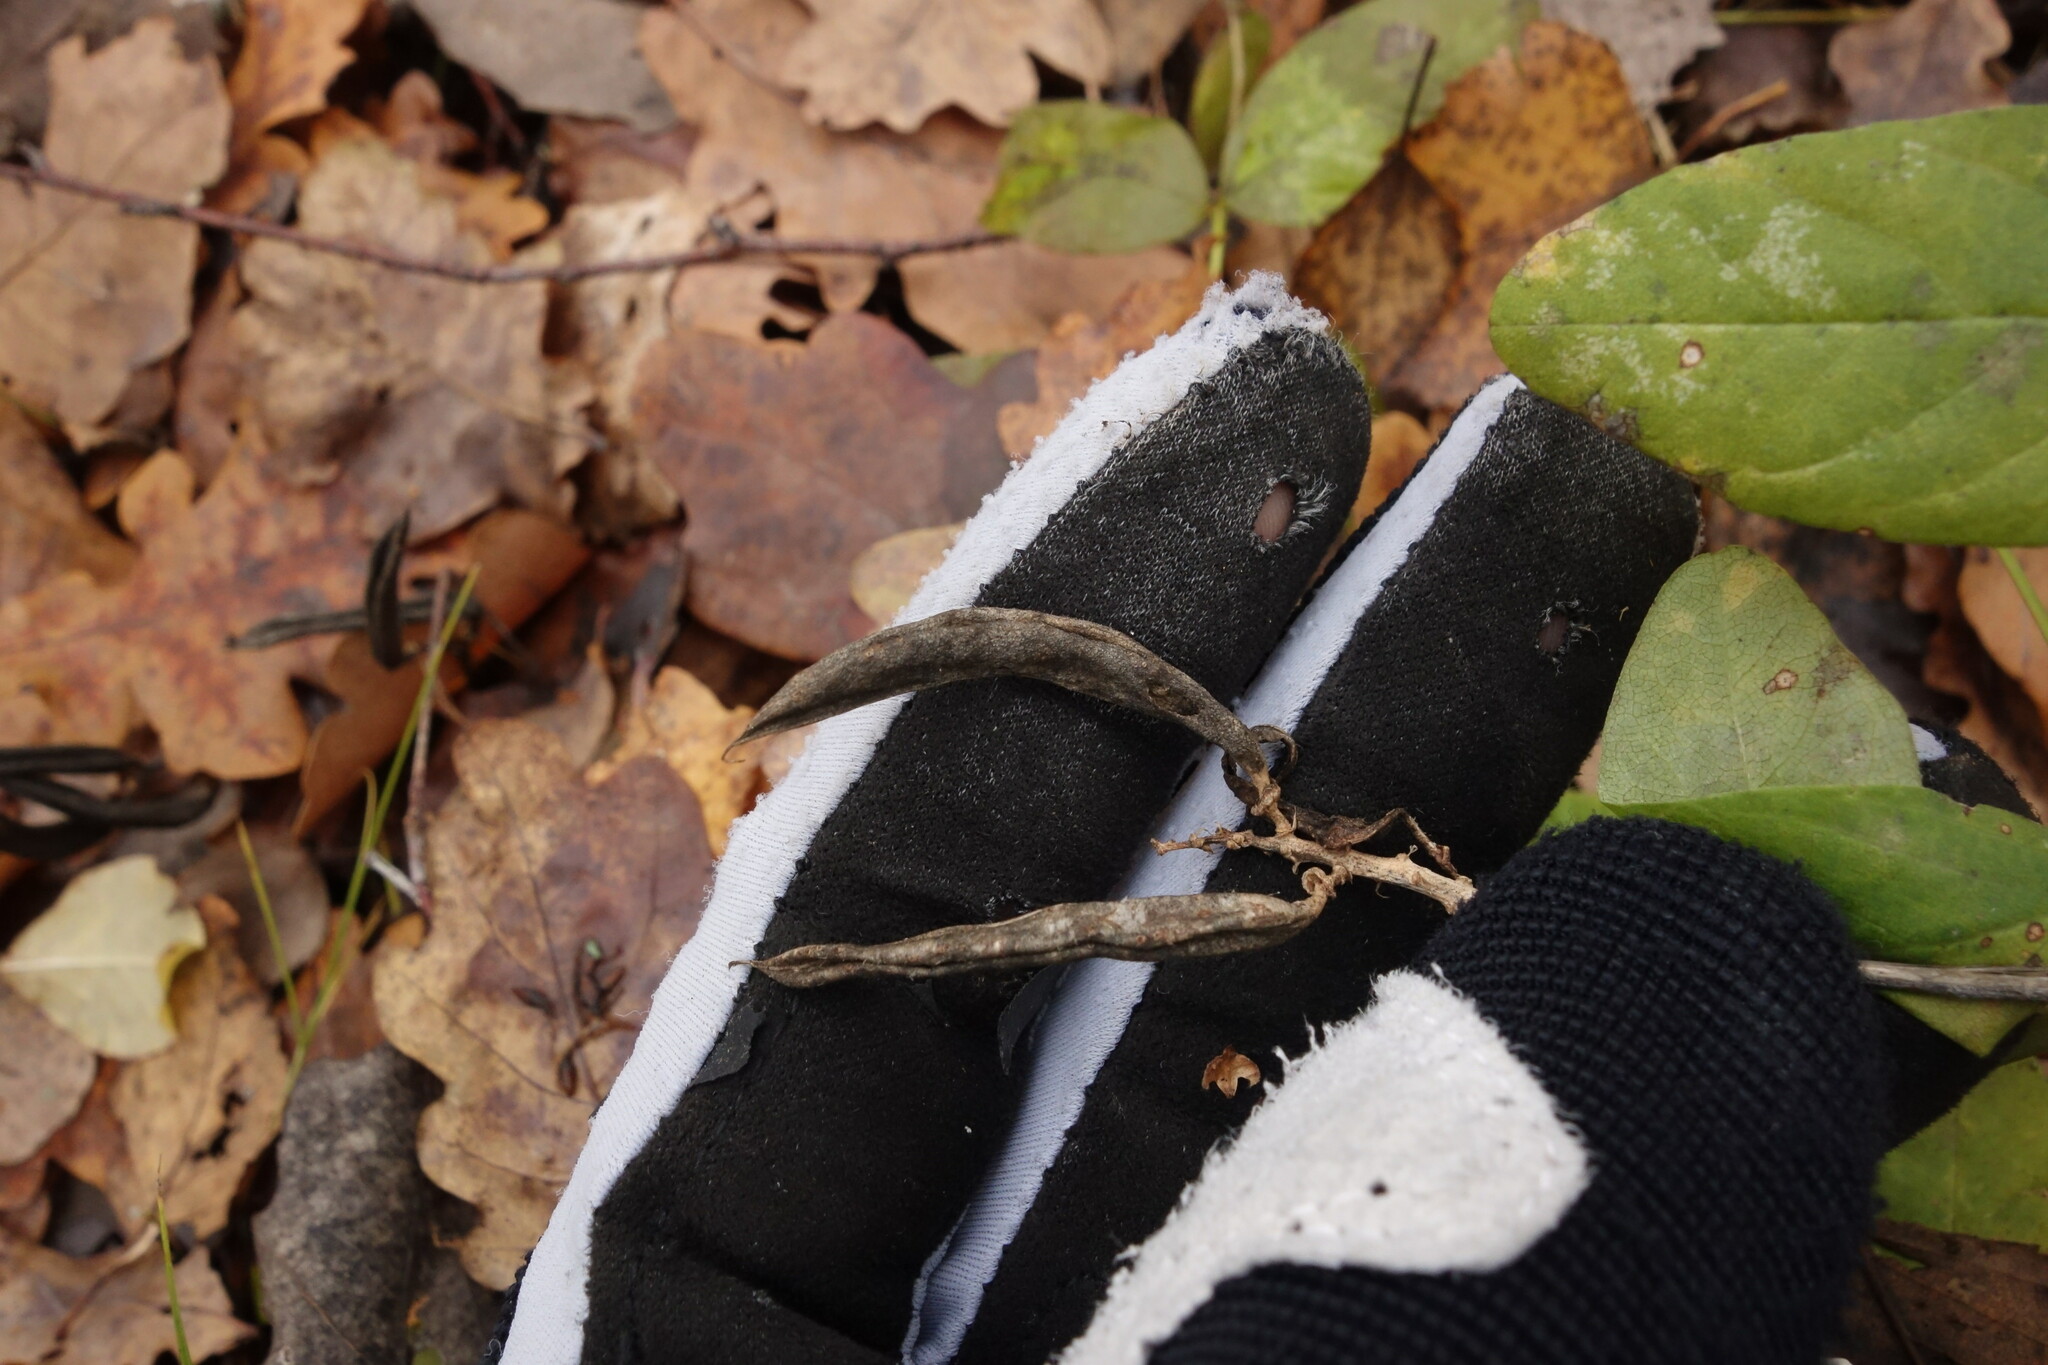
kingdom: Plantae
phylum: Tracheophyta
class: Magnoliopsida
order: Fabales
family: Fabaceae
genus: Astragalus
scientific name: Astragalus glycyphyllos
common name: Wild liquorice
